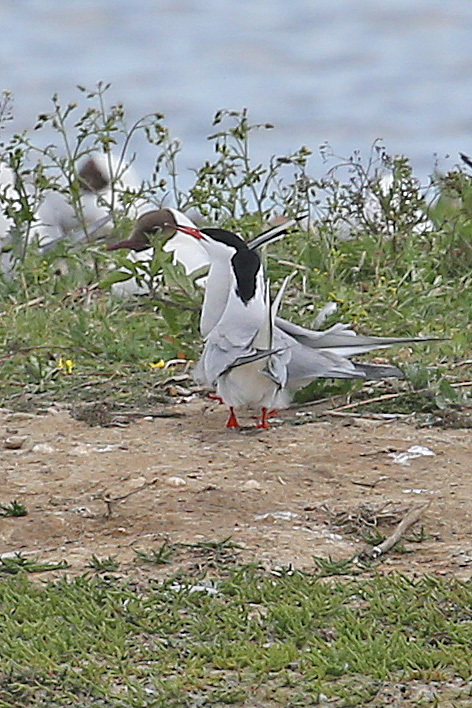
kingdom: Animalia
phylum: Chordata
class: Aves
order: Charadriiformes
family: Laridae
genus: Sterna
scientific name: Sterna hirundo
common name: Common tern
